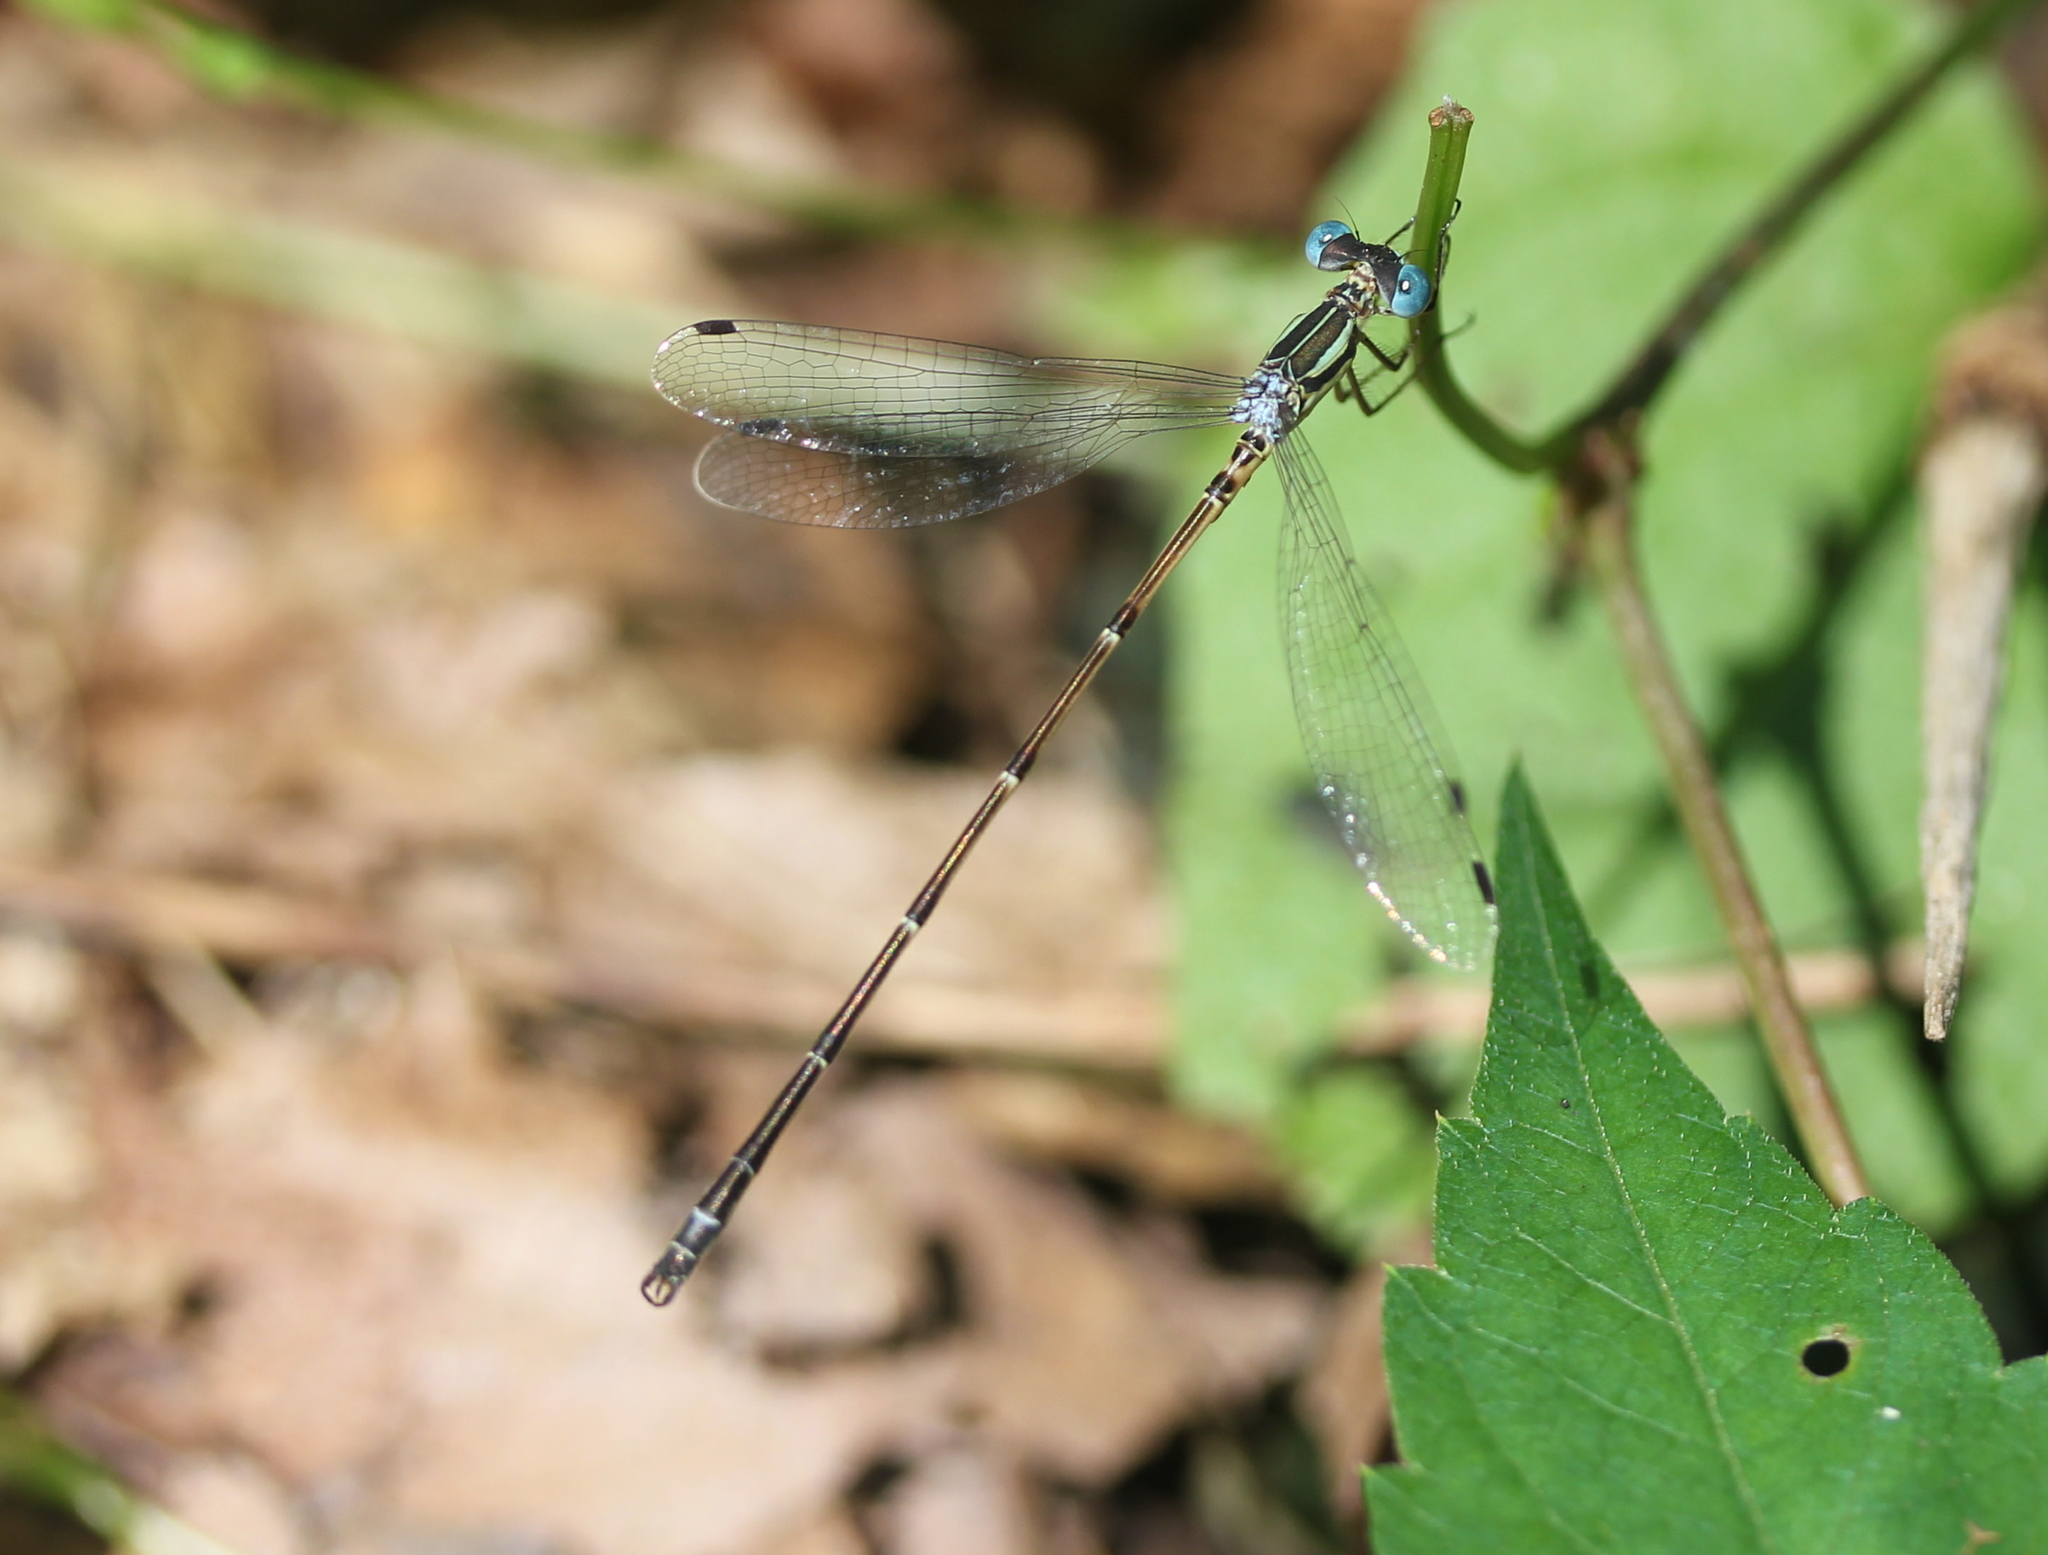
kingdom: Animalia
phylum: Arthropoda
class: Insecta
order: Odonata
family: Lestidae
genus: Lestes
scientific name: Lestes rectangularis
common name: Slender spreadwing
